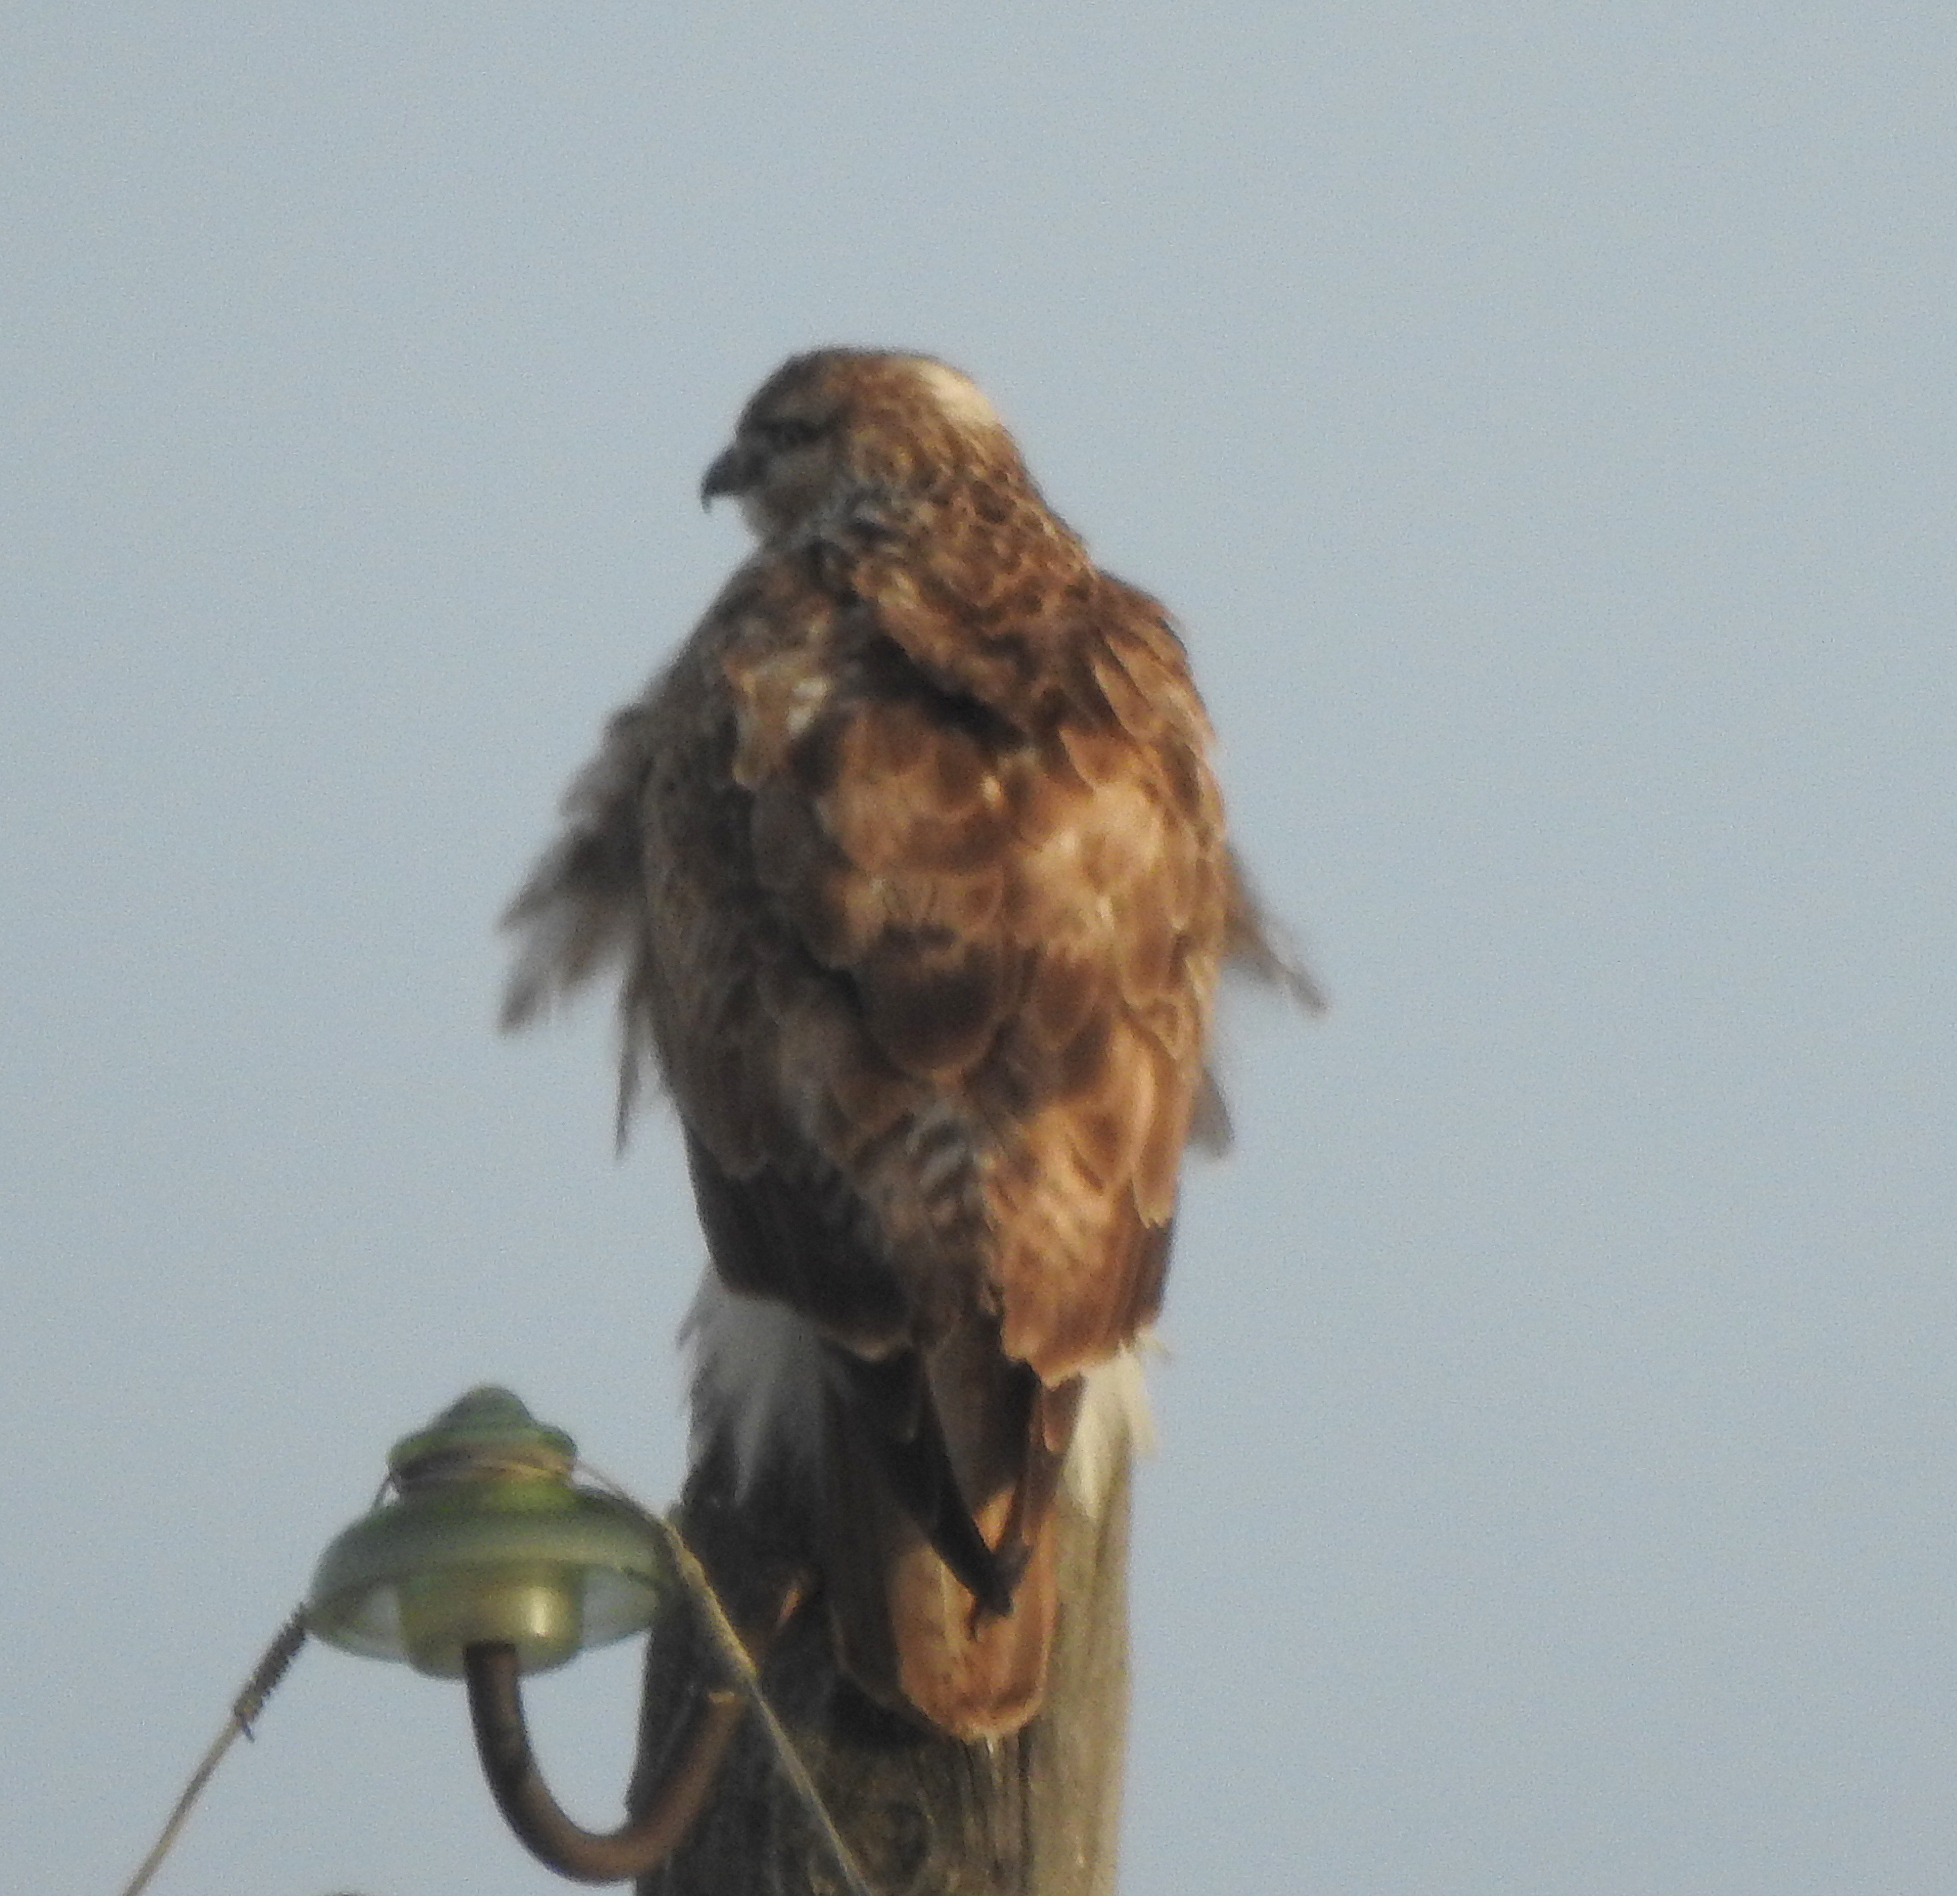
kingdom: Animalia
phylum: Chordata
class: Aves
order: Accipitriformes
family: Accipitridae
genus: Buteo
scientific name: Buteo hemilasius
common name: Upland buzzard
